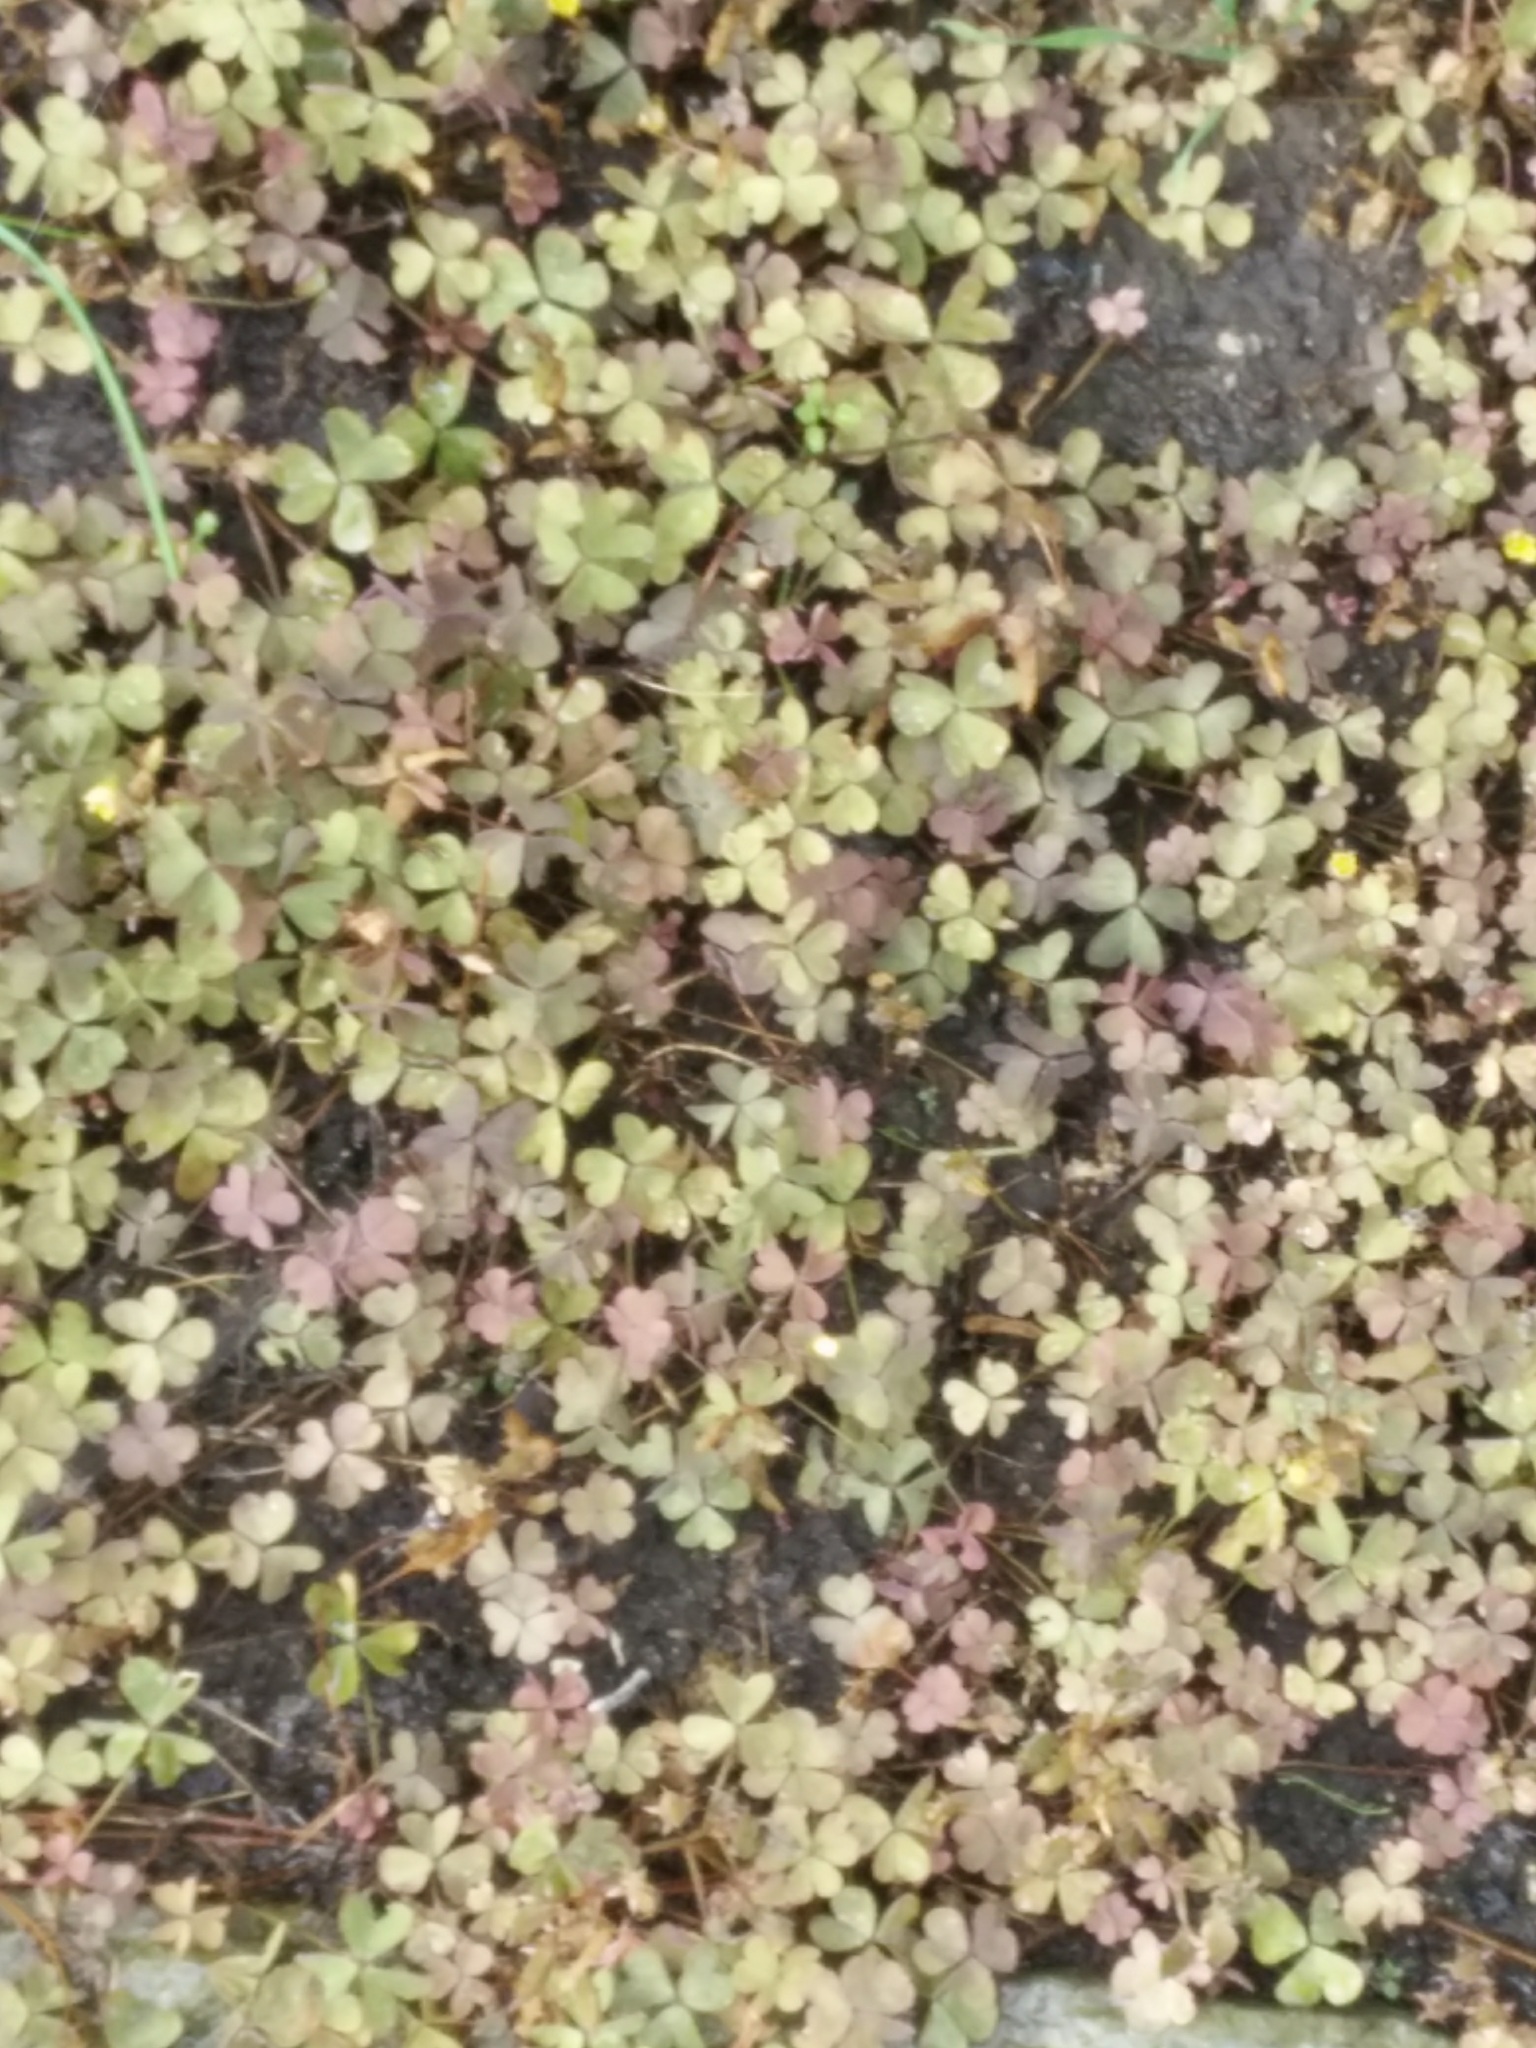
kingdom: Plantae
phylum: Tracheophyta
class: Magnoliopsida
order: Oxalidales
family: Oxalidaceae
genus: Oxalis
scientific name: Oxalis corniculata
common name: Procumbent yellow-sorrel
